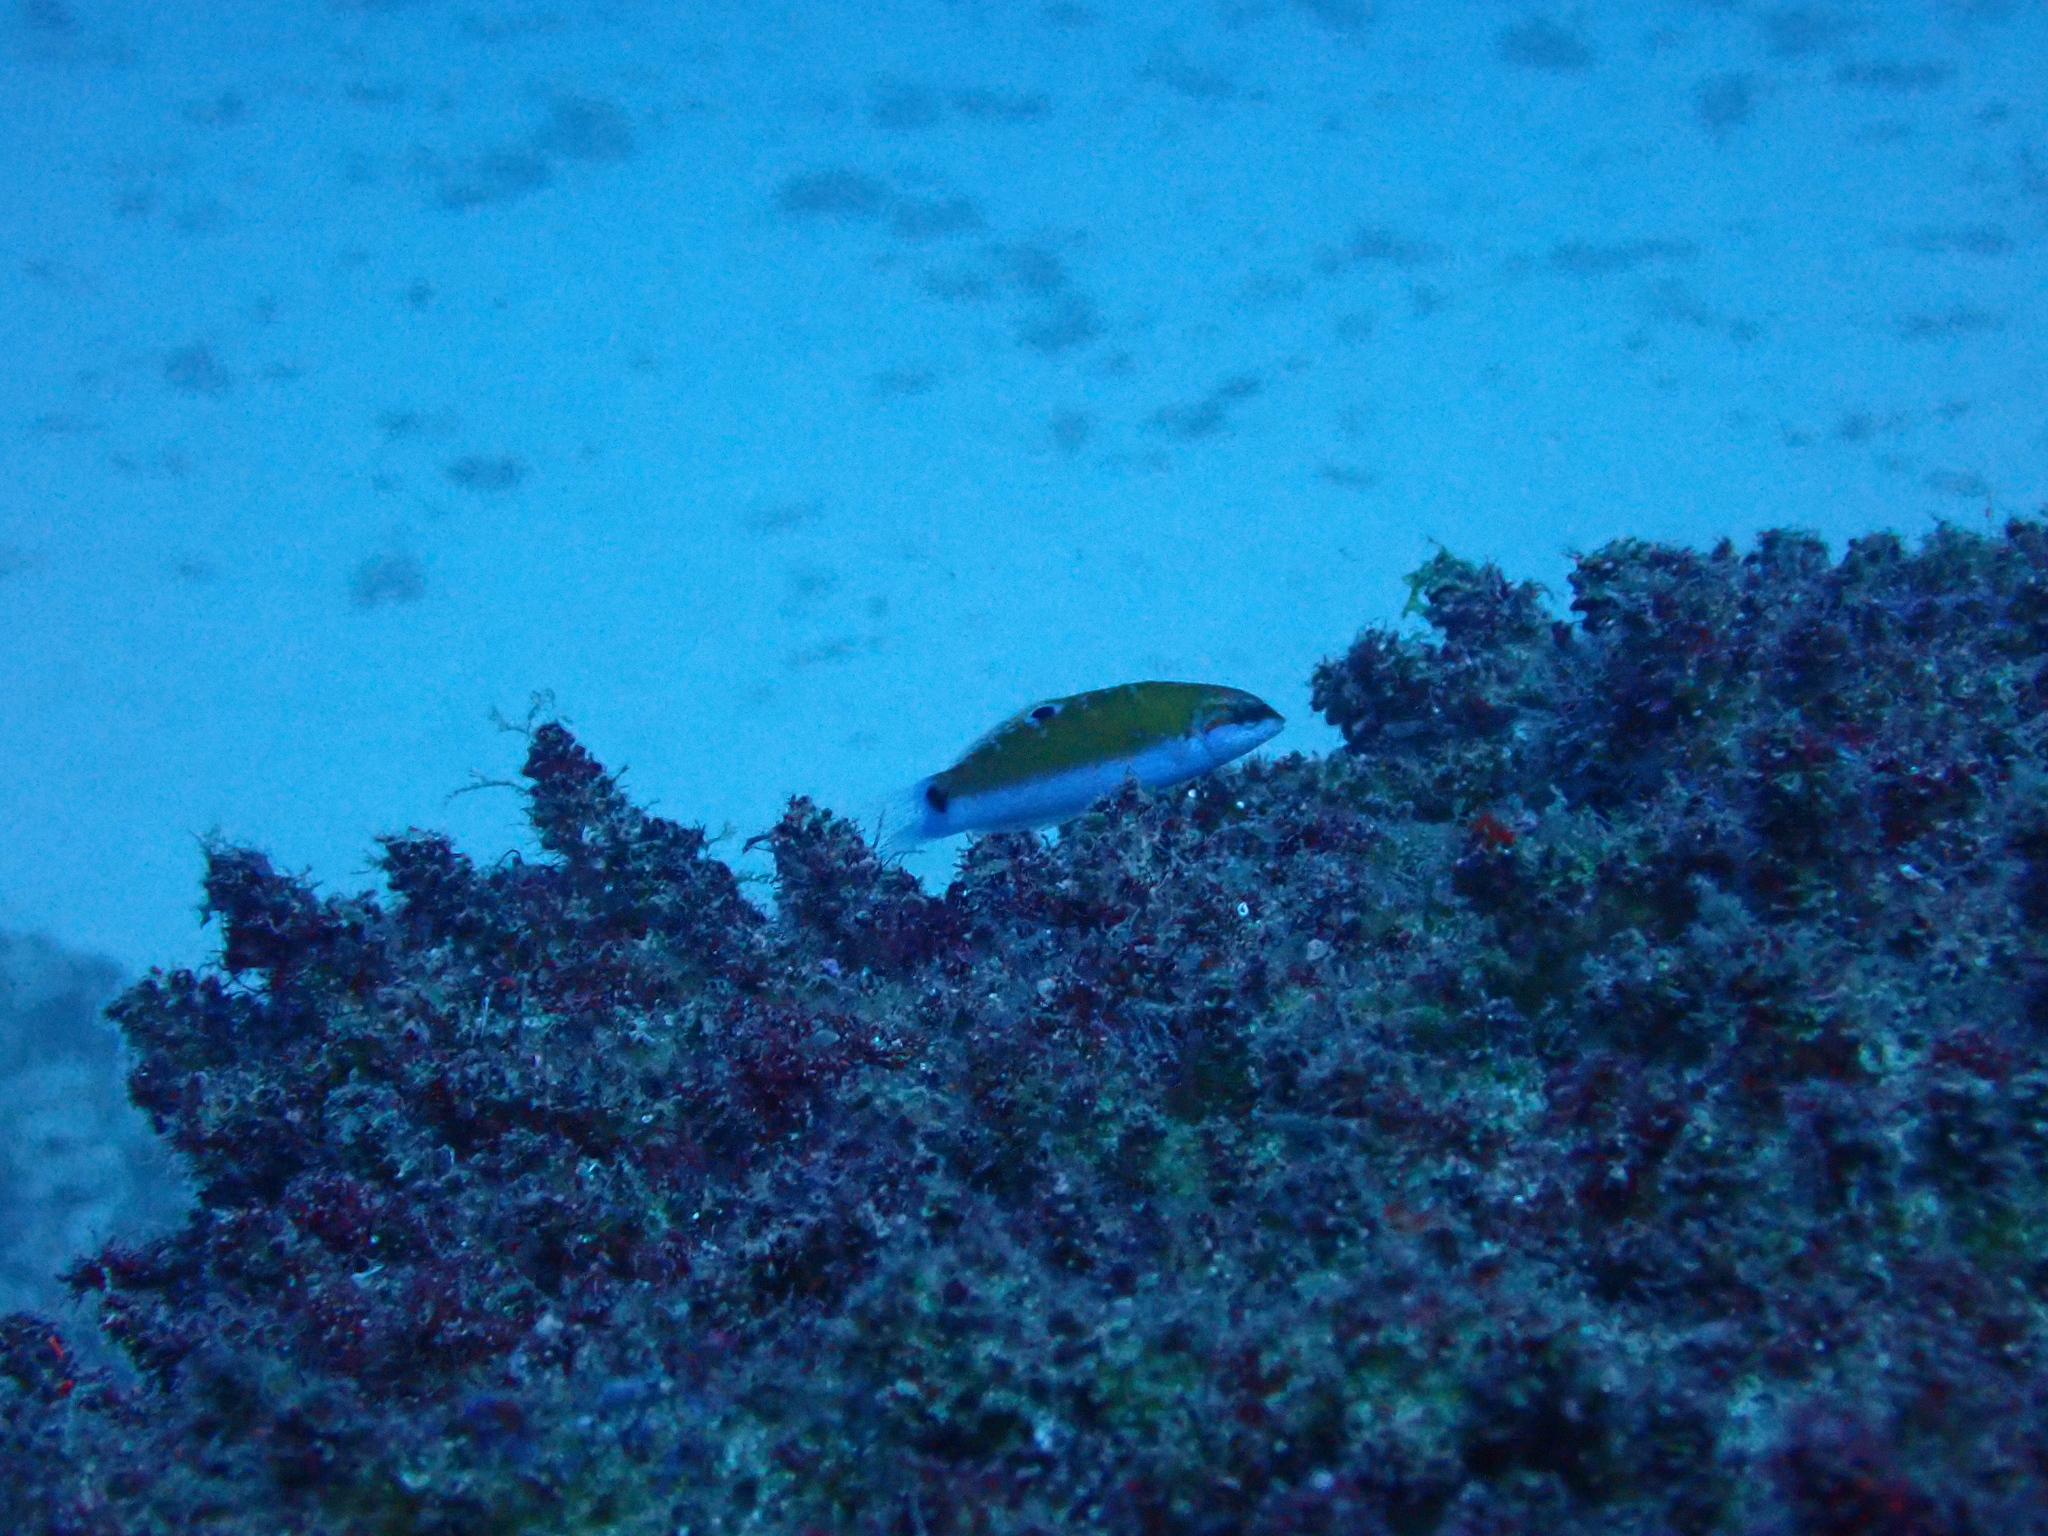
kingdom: Animalia
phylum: Chordata
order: Perciformes
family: Labridae
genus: Thalassoma
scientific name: Thalassoma lunare
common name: Blue wrasse
